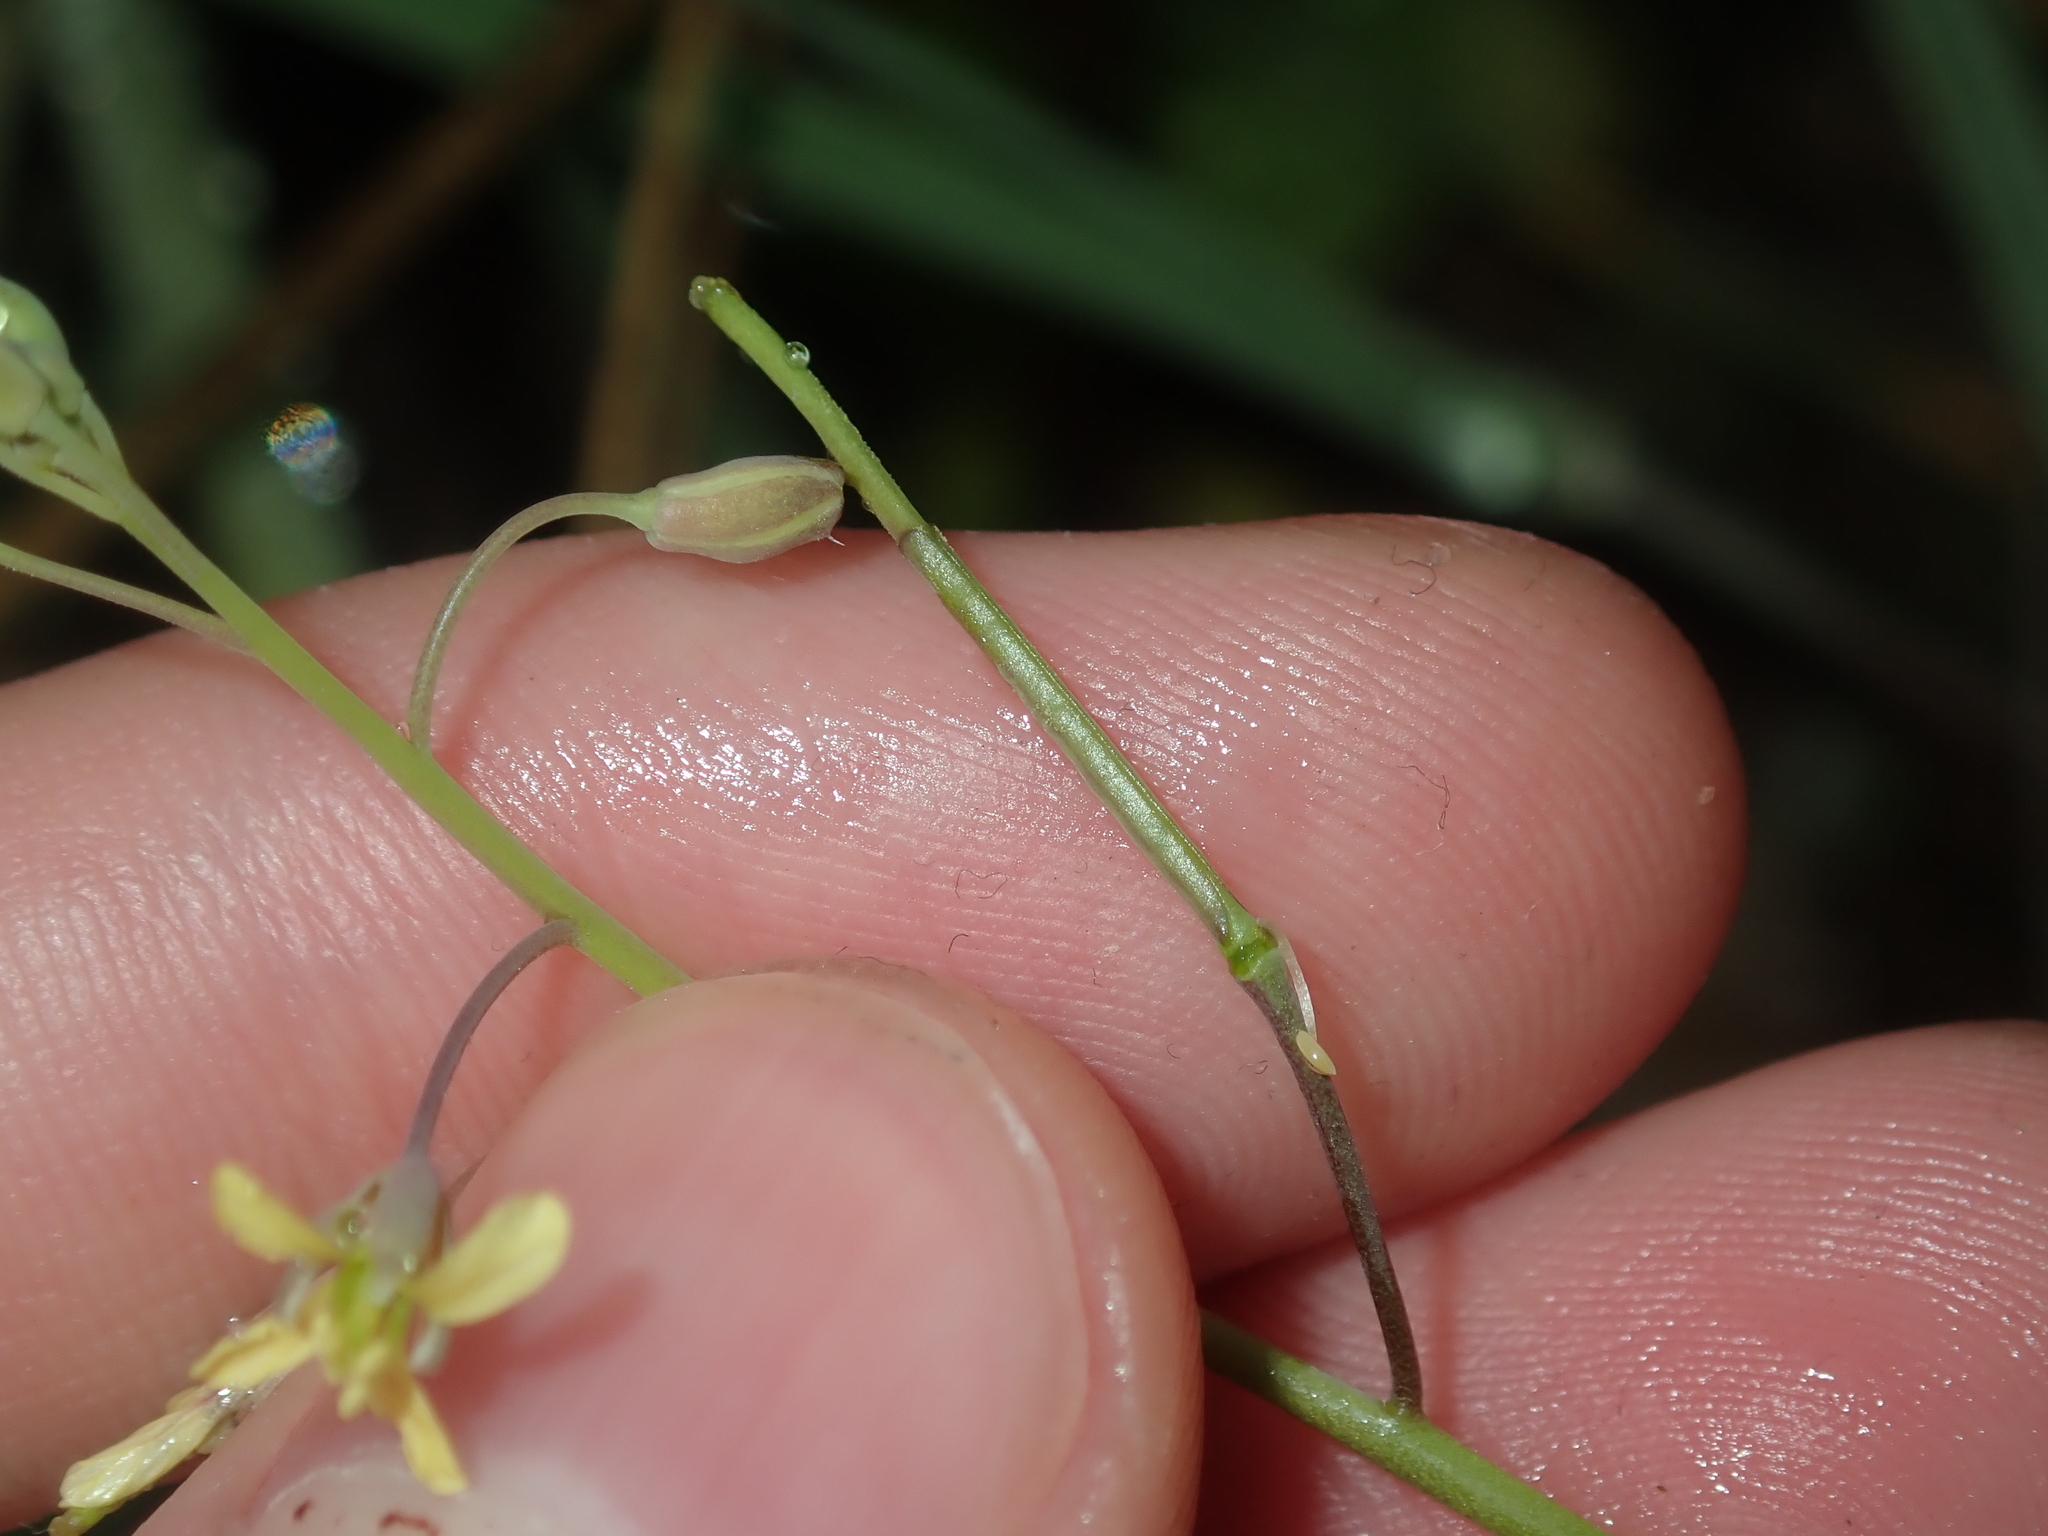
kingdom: Plantae
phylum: Tracheophyta
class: Magnoliopsida
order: Brassicales
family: Brassicaceae
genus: Brassica
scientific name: Brassica tournefortii
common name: Pale cabbage
